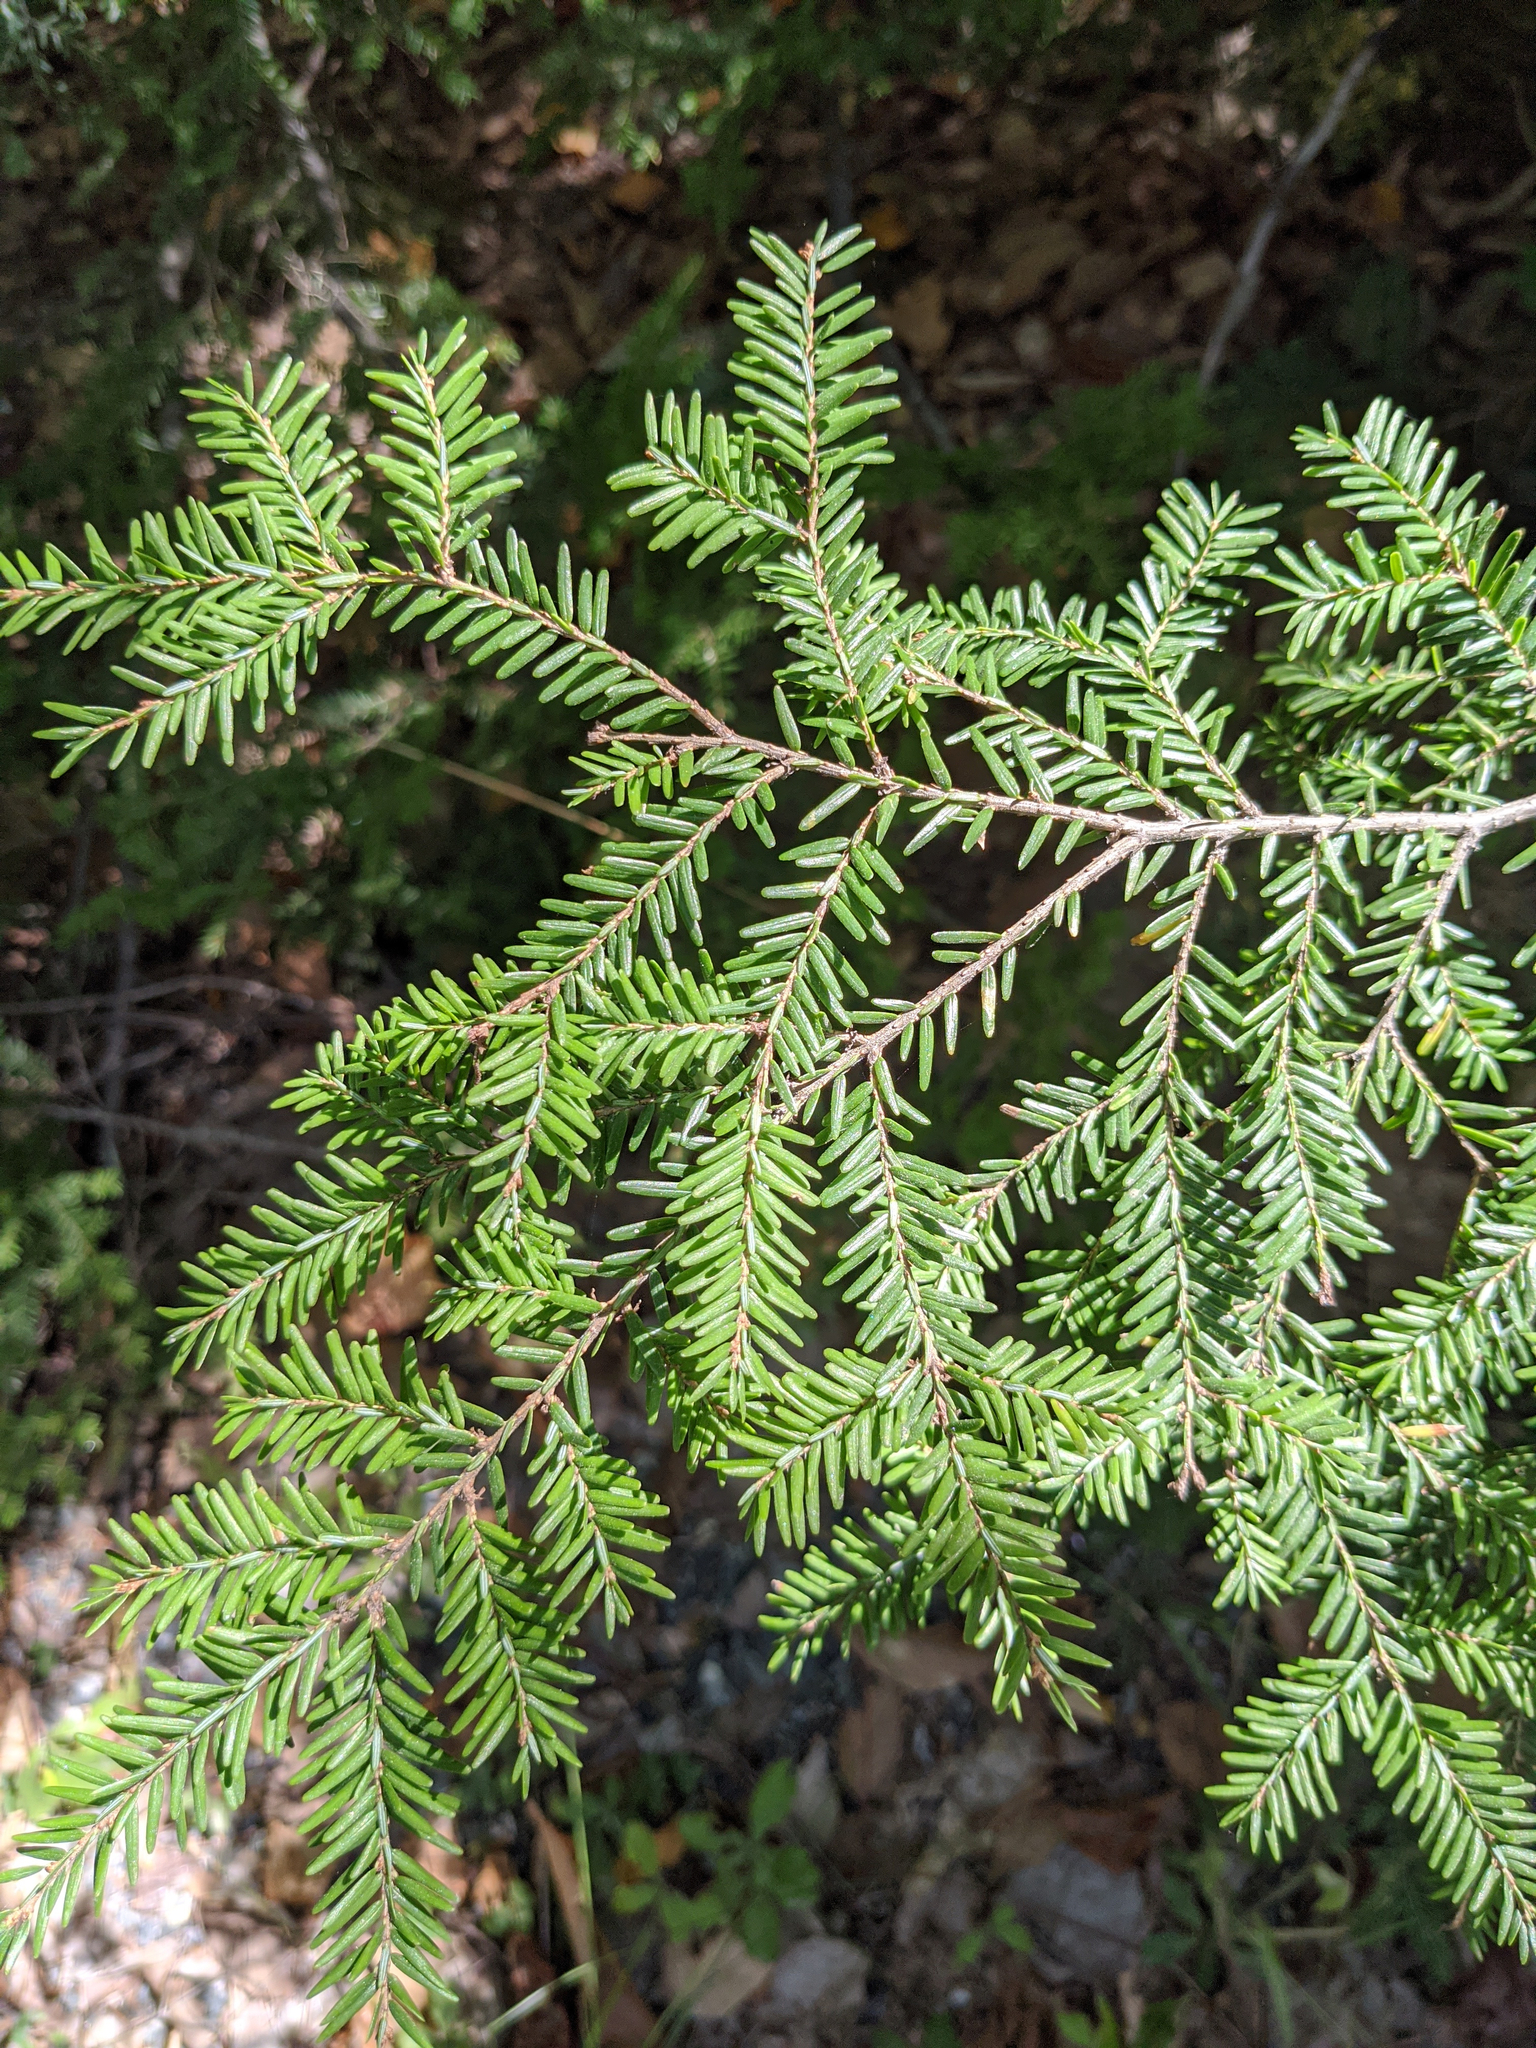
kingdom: Plantae
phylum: Tracheophyta
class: Pinopsida
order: Pinales
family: Pinaceae
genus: Tsuga
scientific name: Tsuga canadensis
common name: Eastern hemlock
